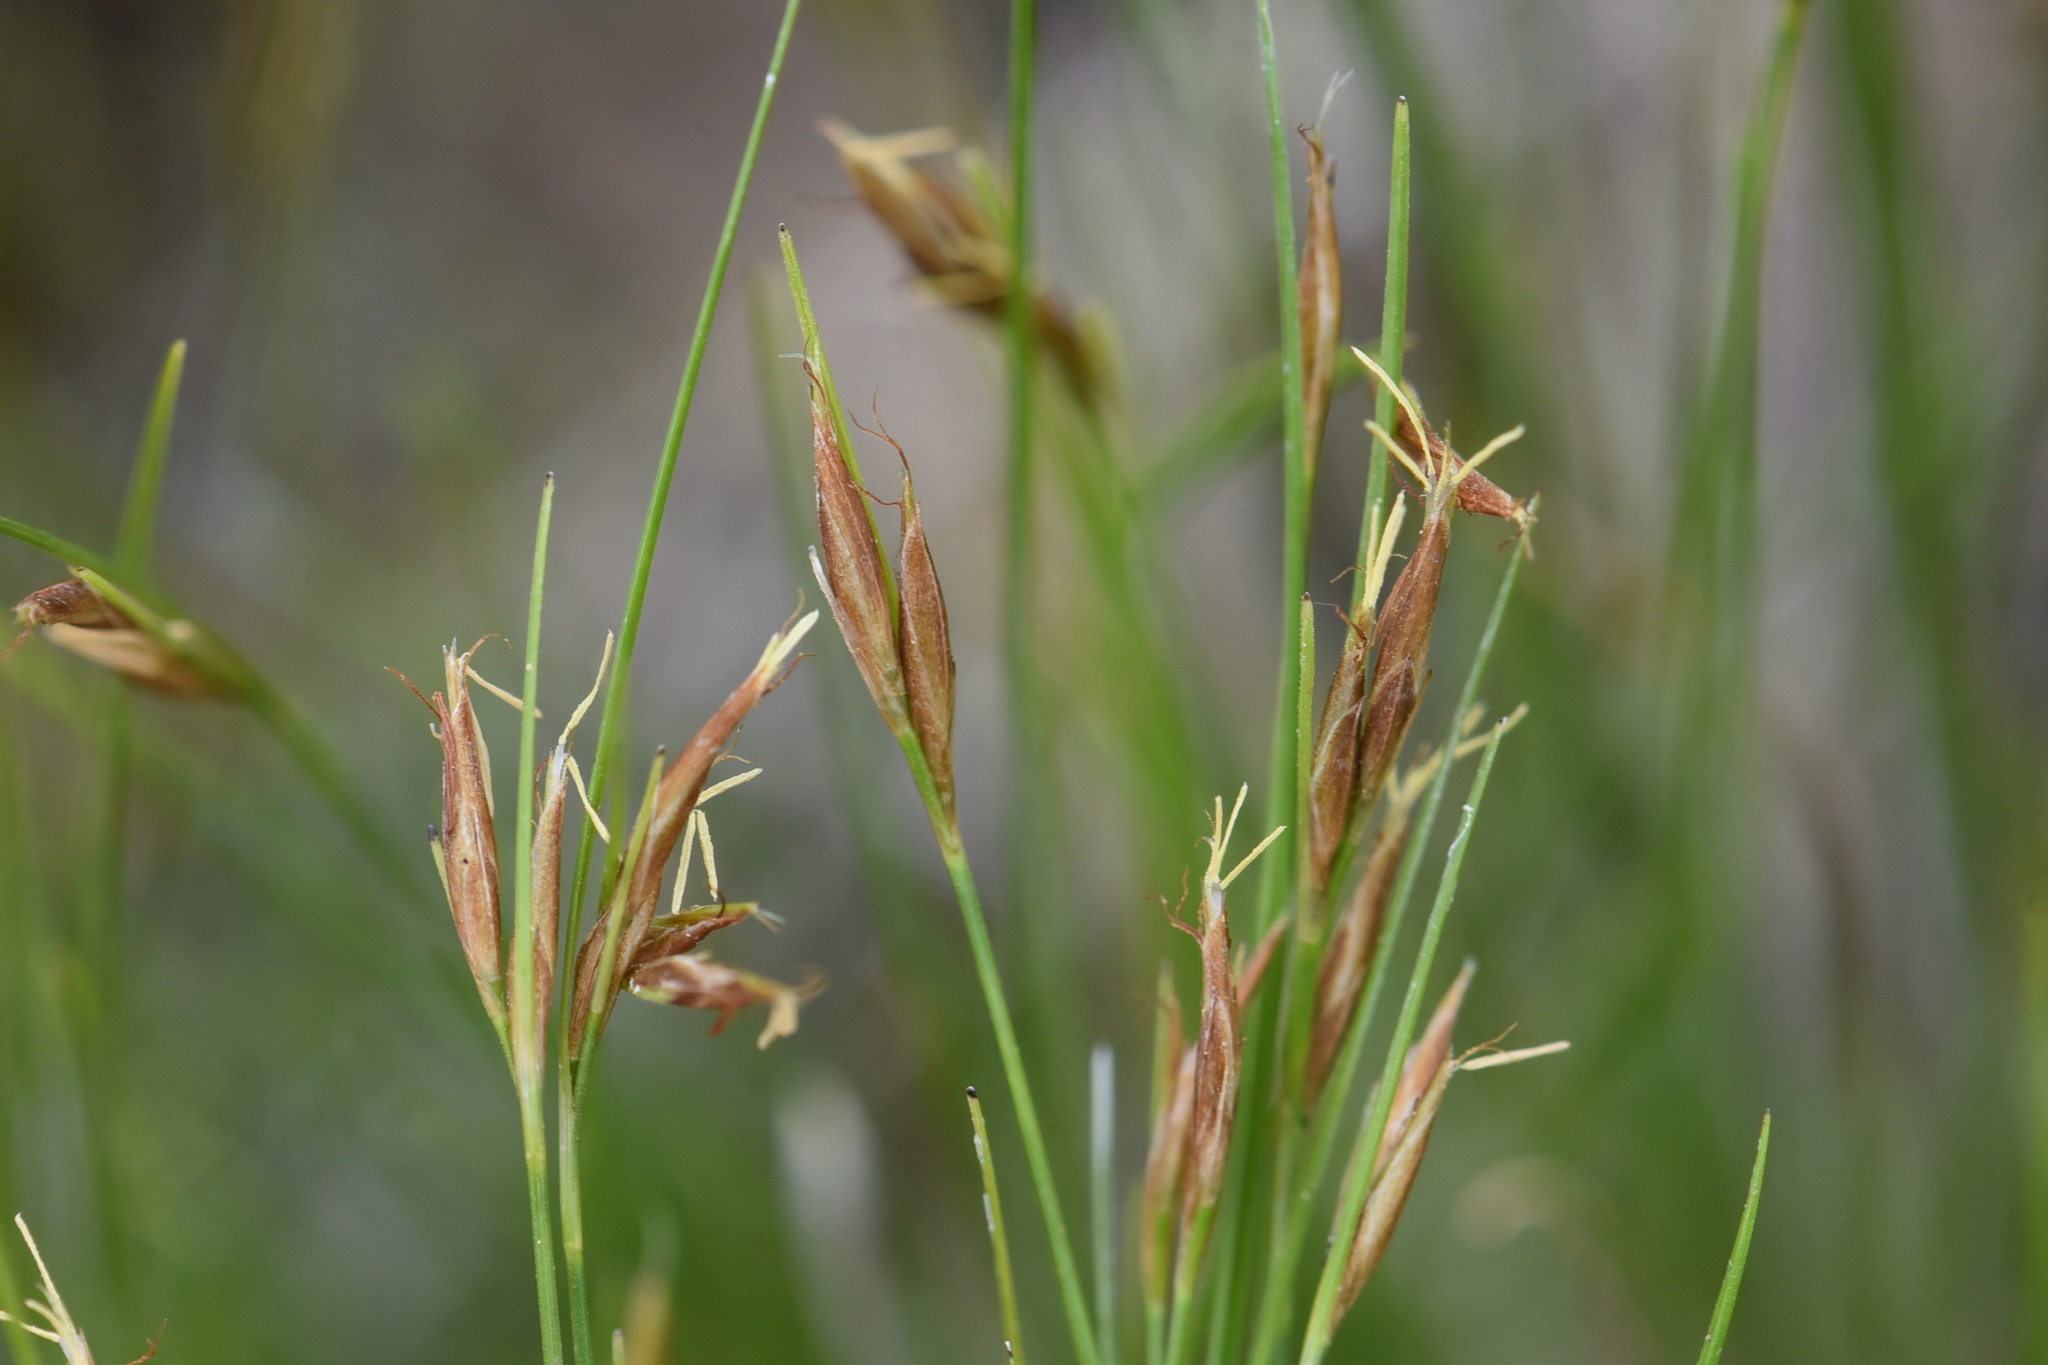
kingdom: Plantae
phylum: Tracheophyta
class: Liliopsida
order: Poales
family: Cyperaceae
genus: Rhynchospora
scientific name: Rhynchospora capillacea
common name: Capillary beakrush
